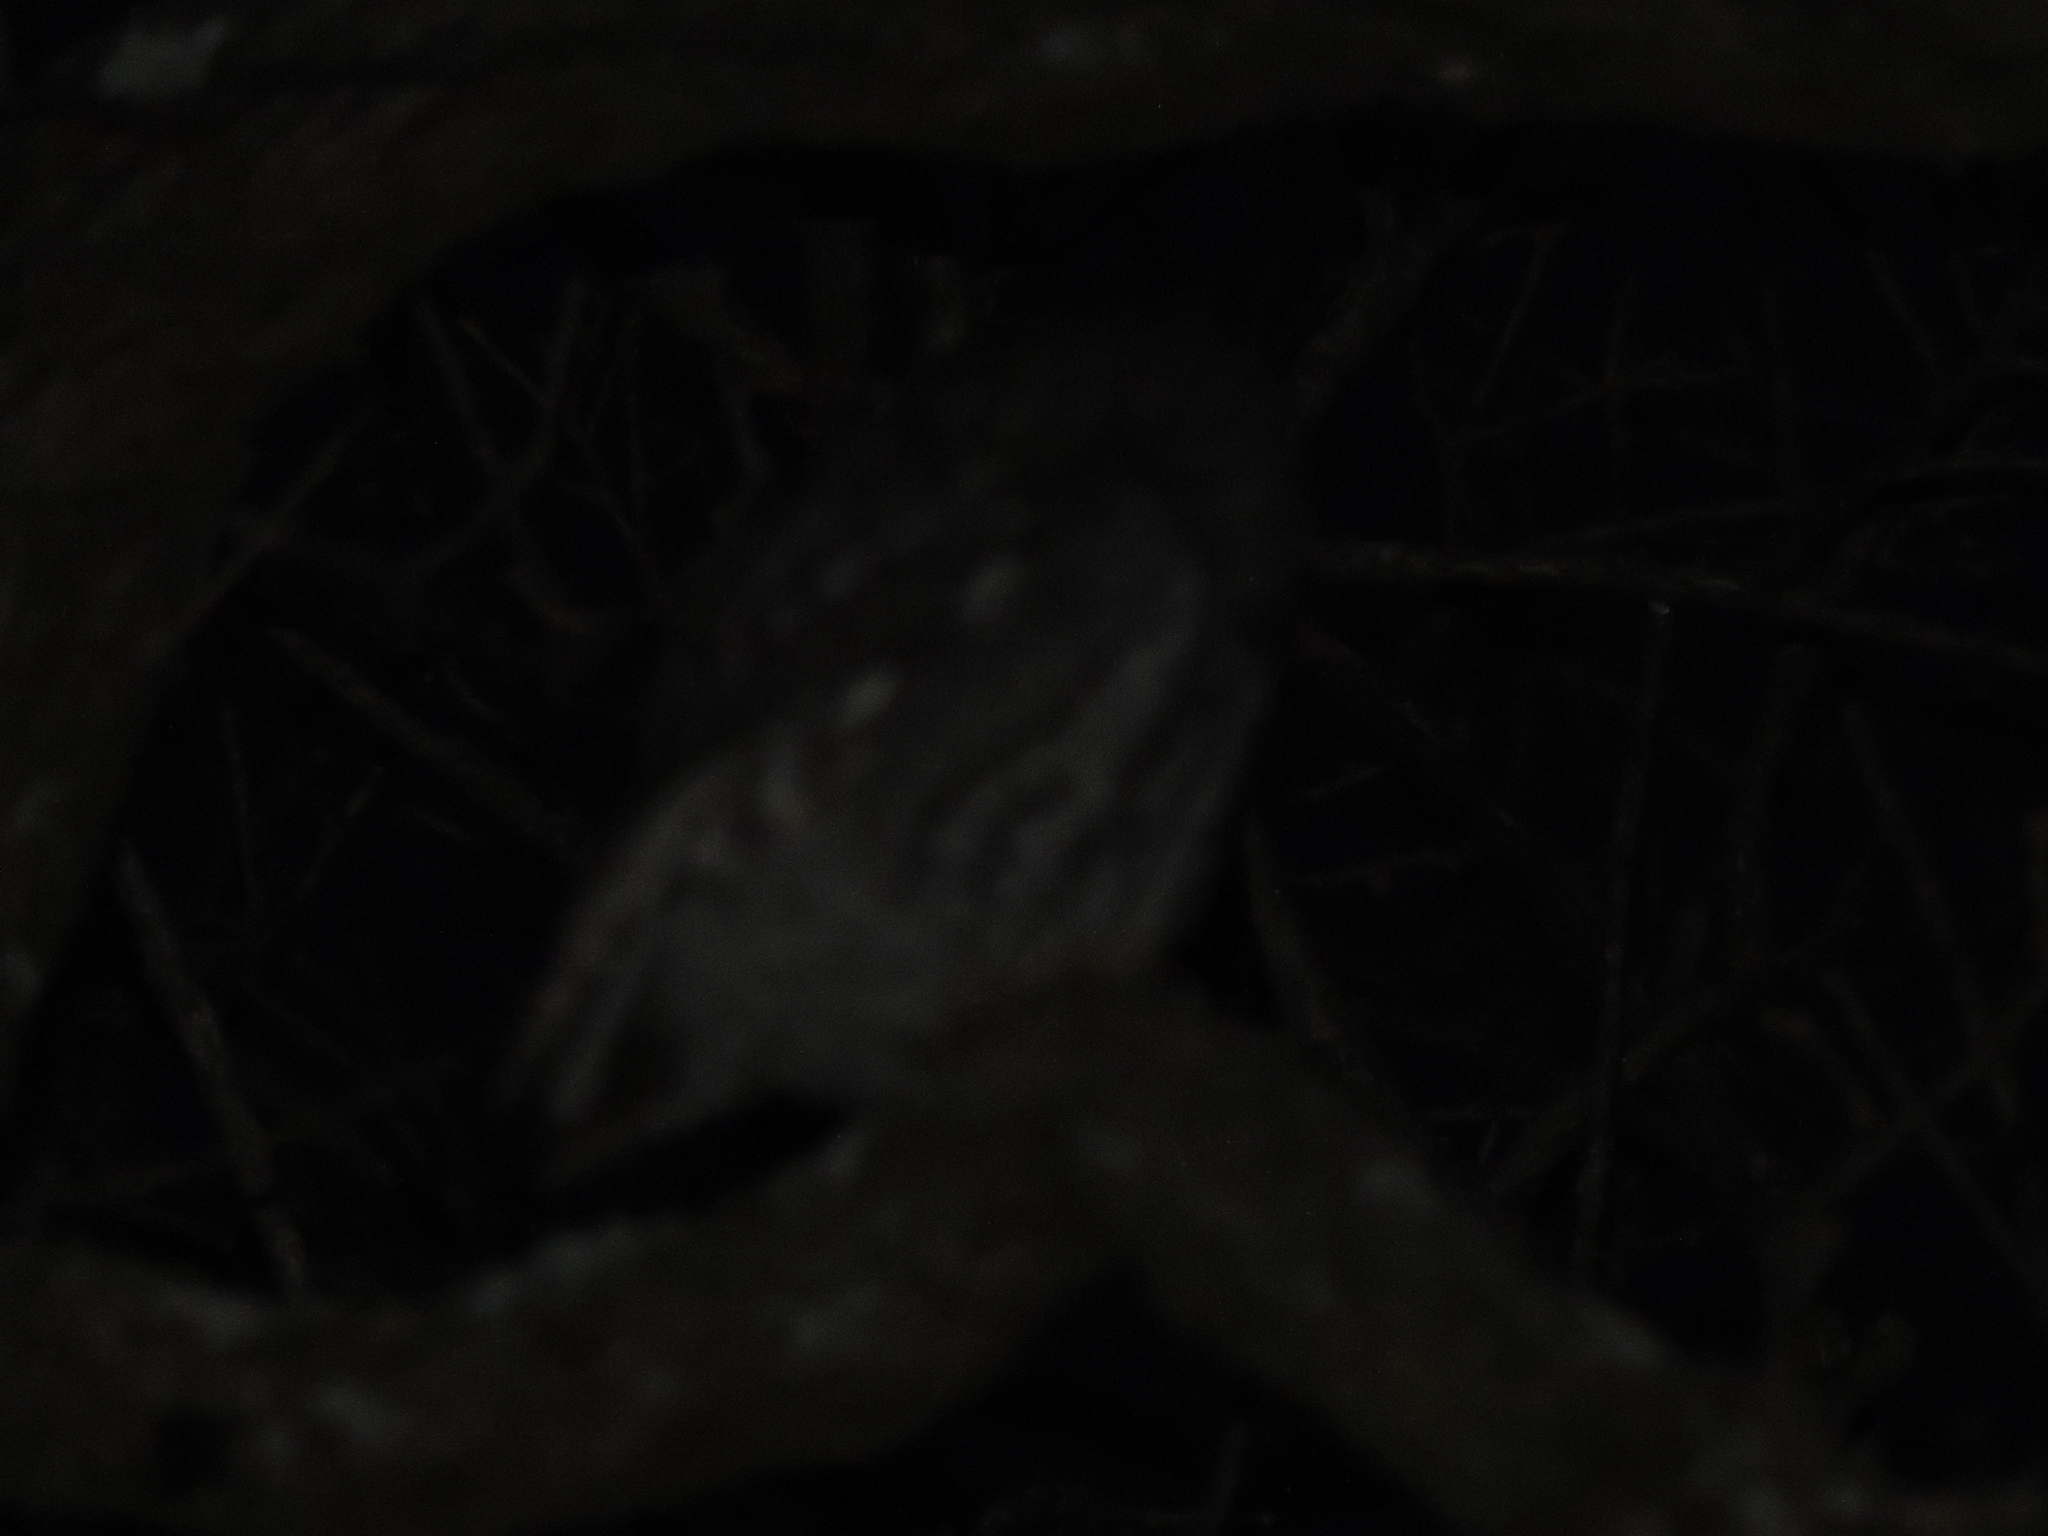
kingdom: Animalia
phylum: Chordata
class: Aves
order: Strigiformes
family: Strigidae
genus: Megascops
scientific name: Megascops asio
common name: Eastern screech-owl
